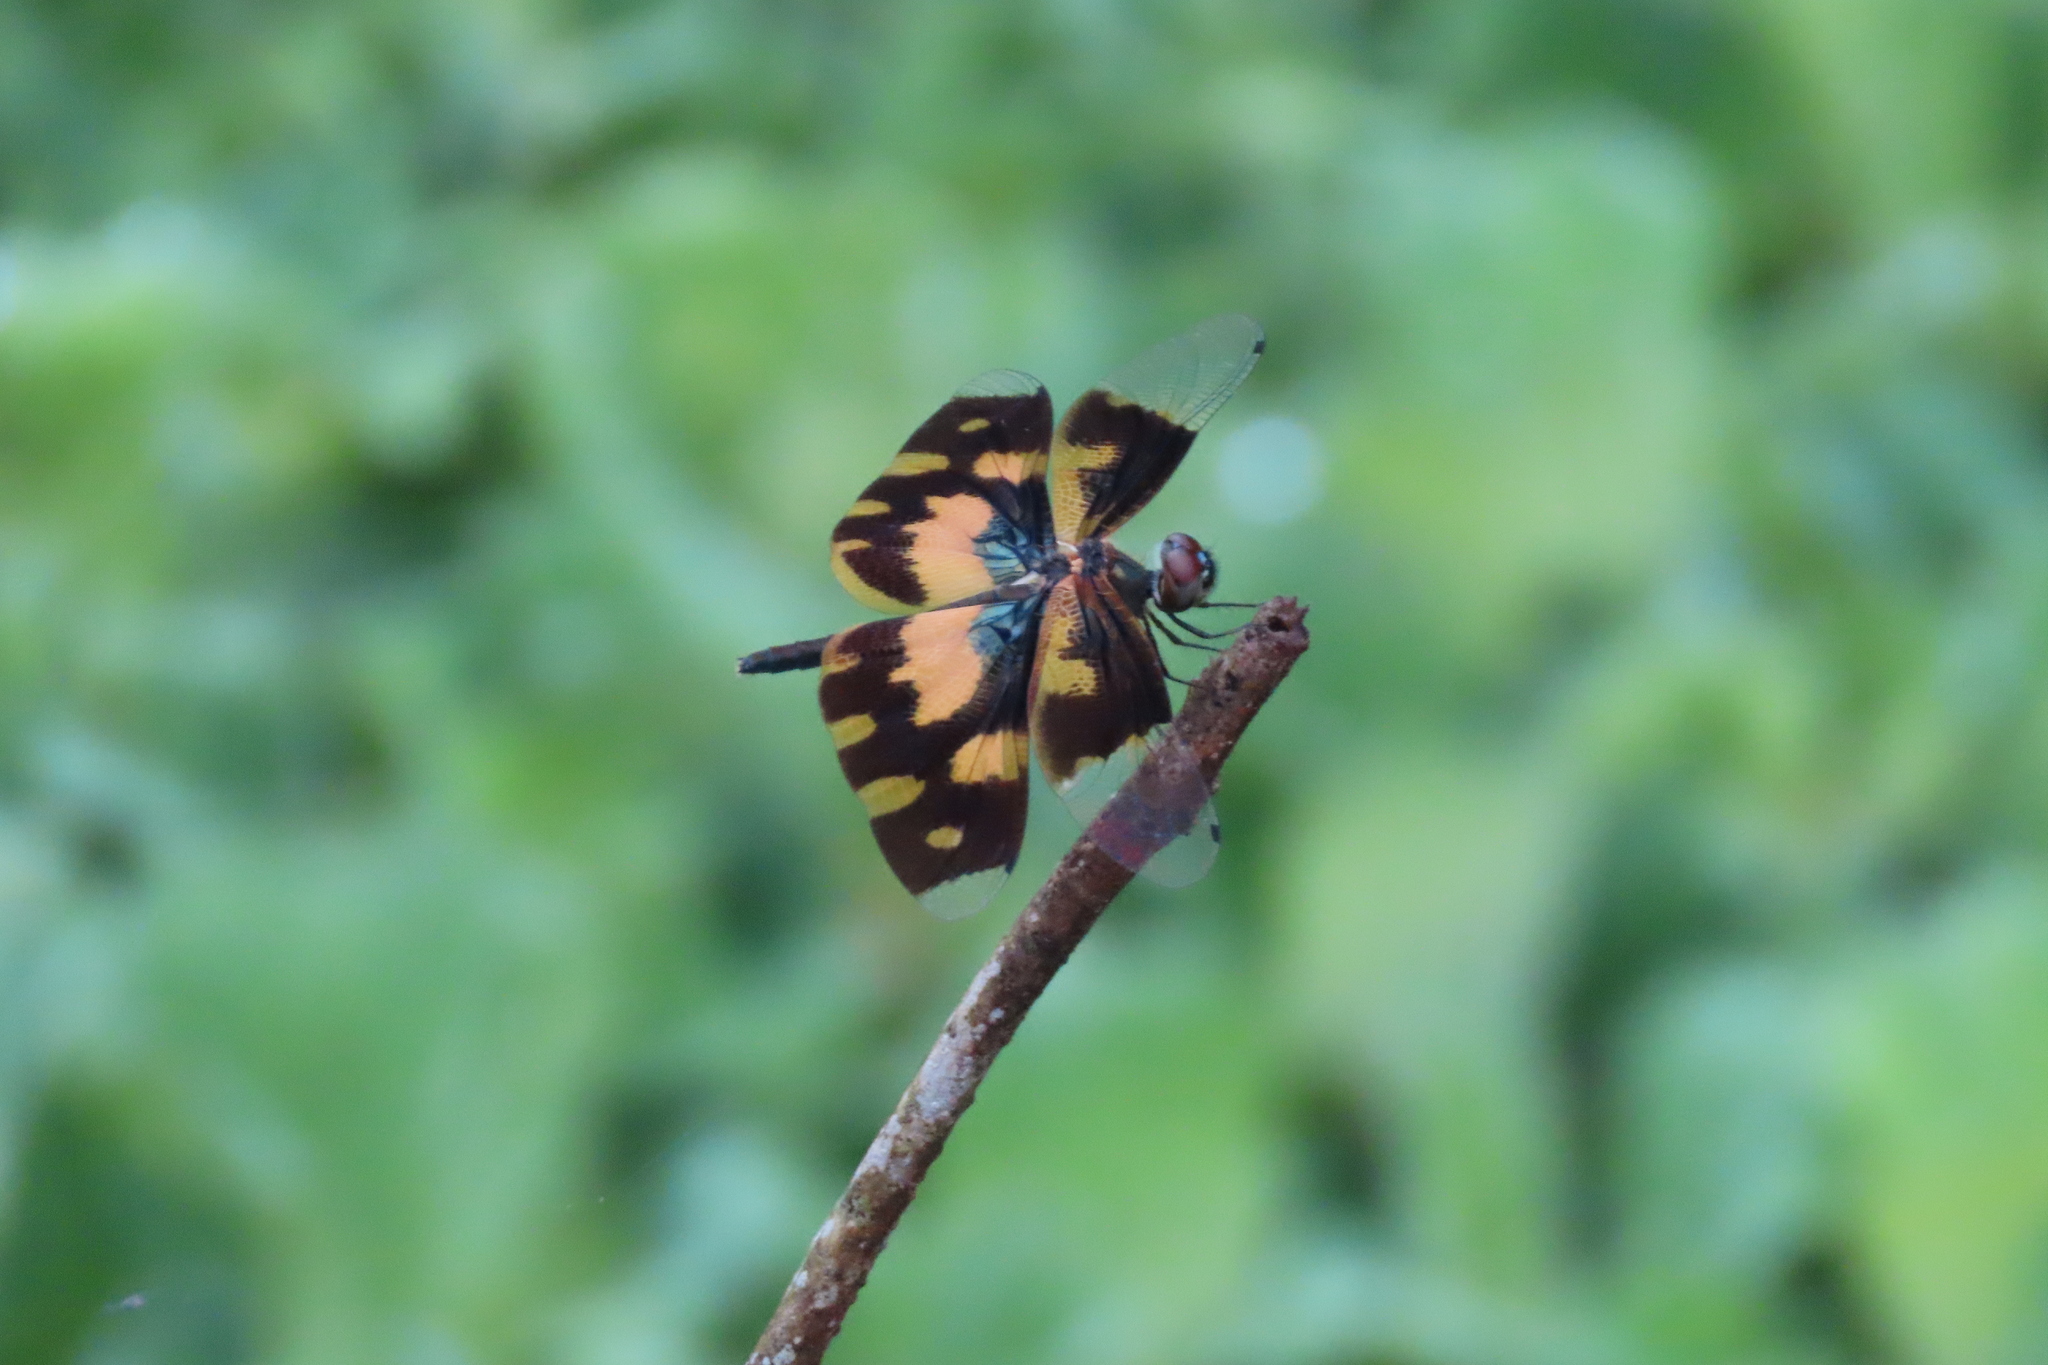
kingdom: Animalia
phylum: Arthropoda
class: Insecta
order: Odonata
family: Libellulidae
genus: Rhyothemis
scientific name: Rhyothemis variegata
